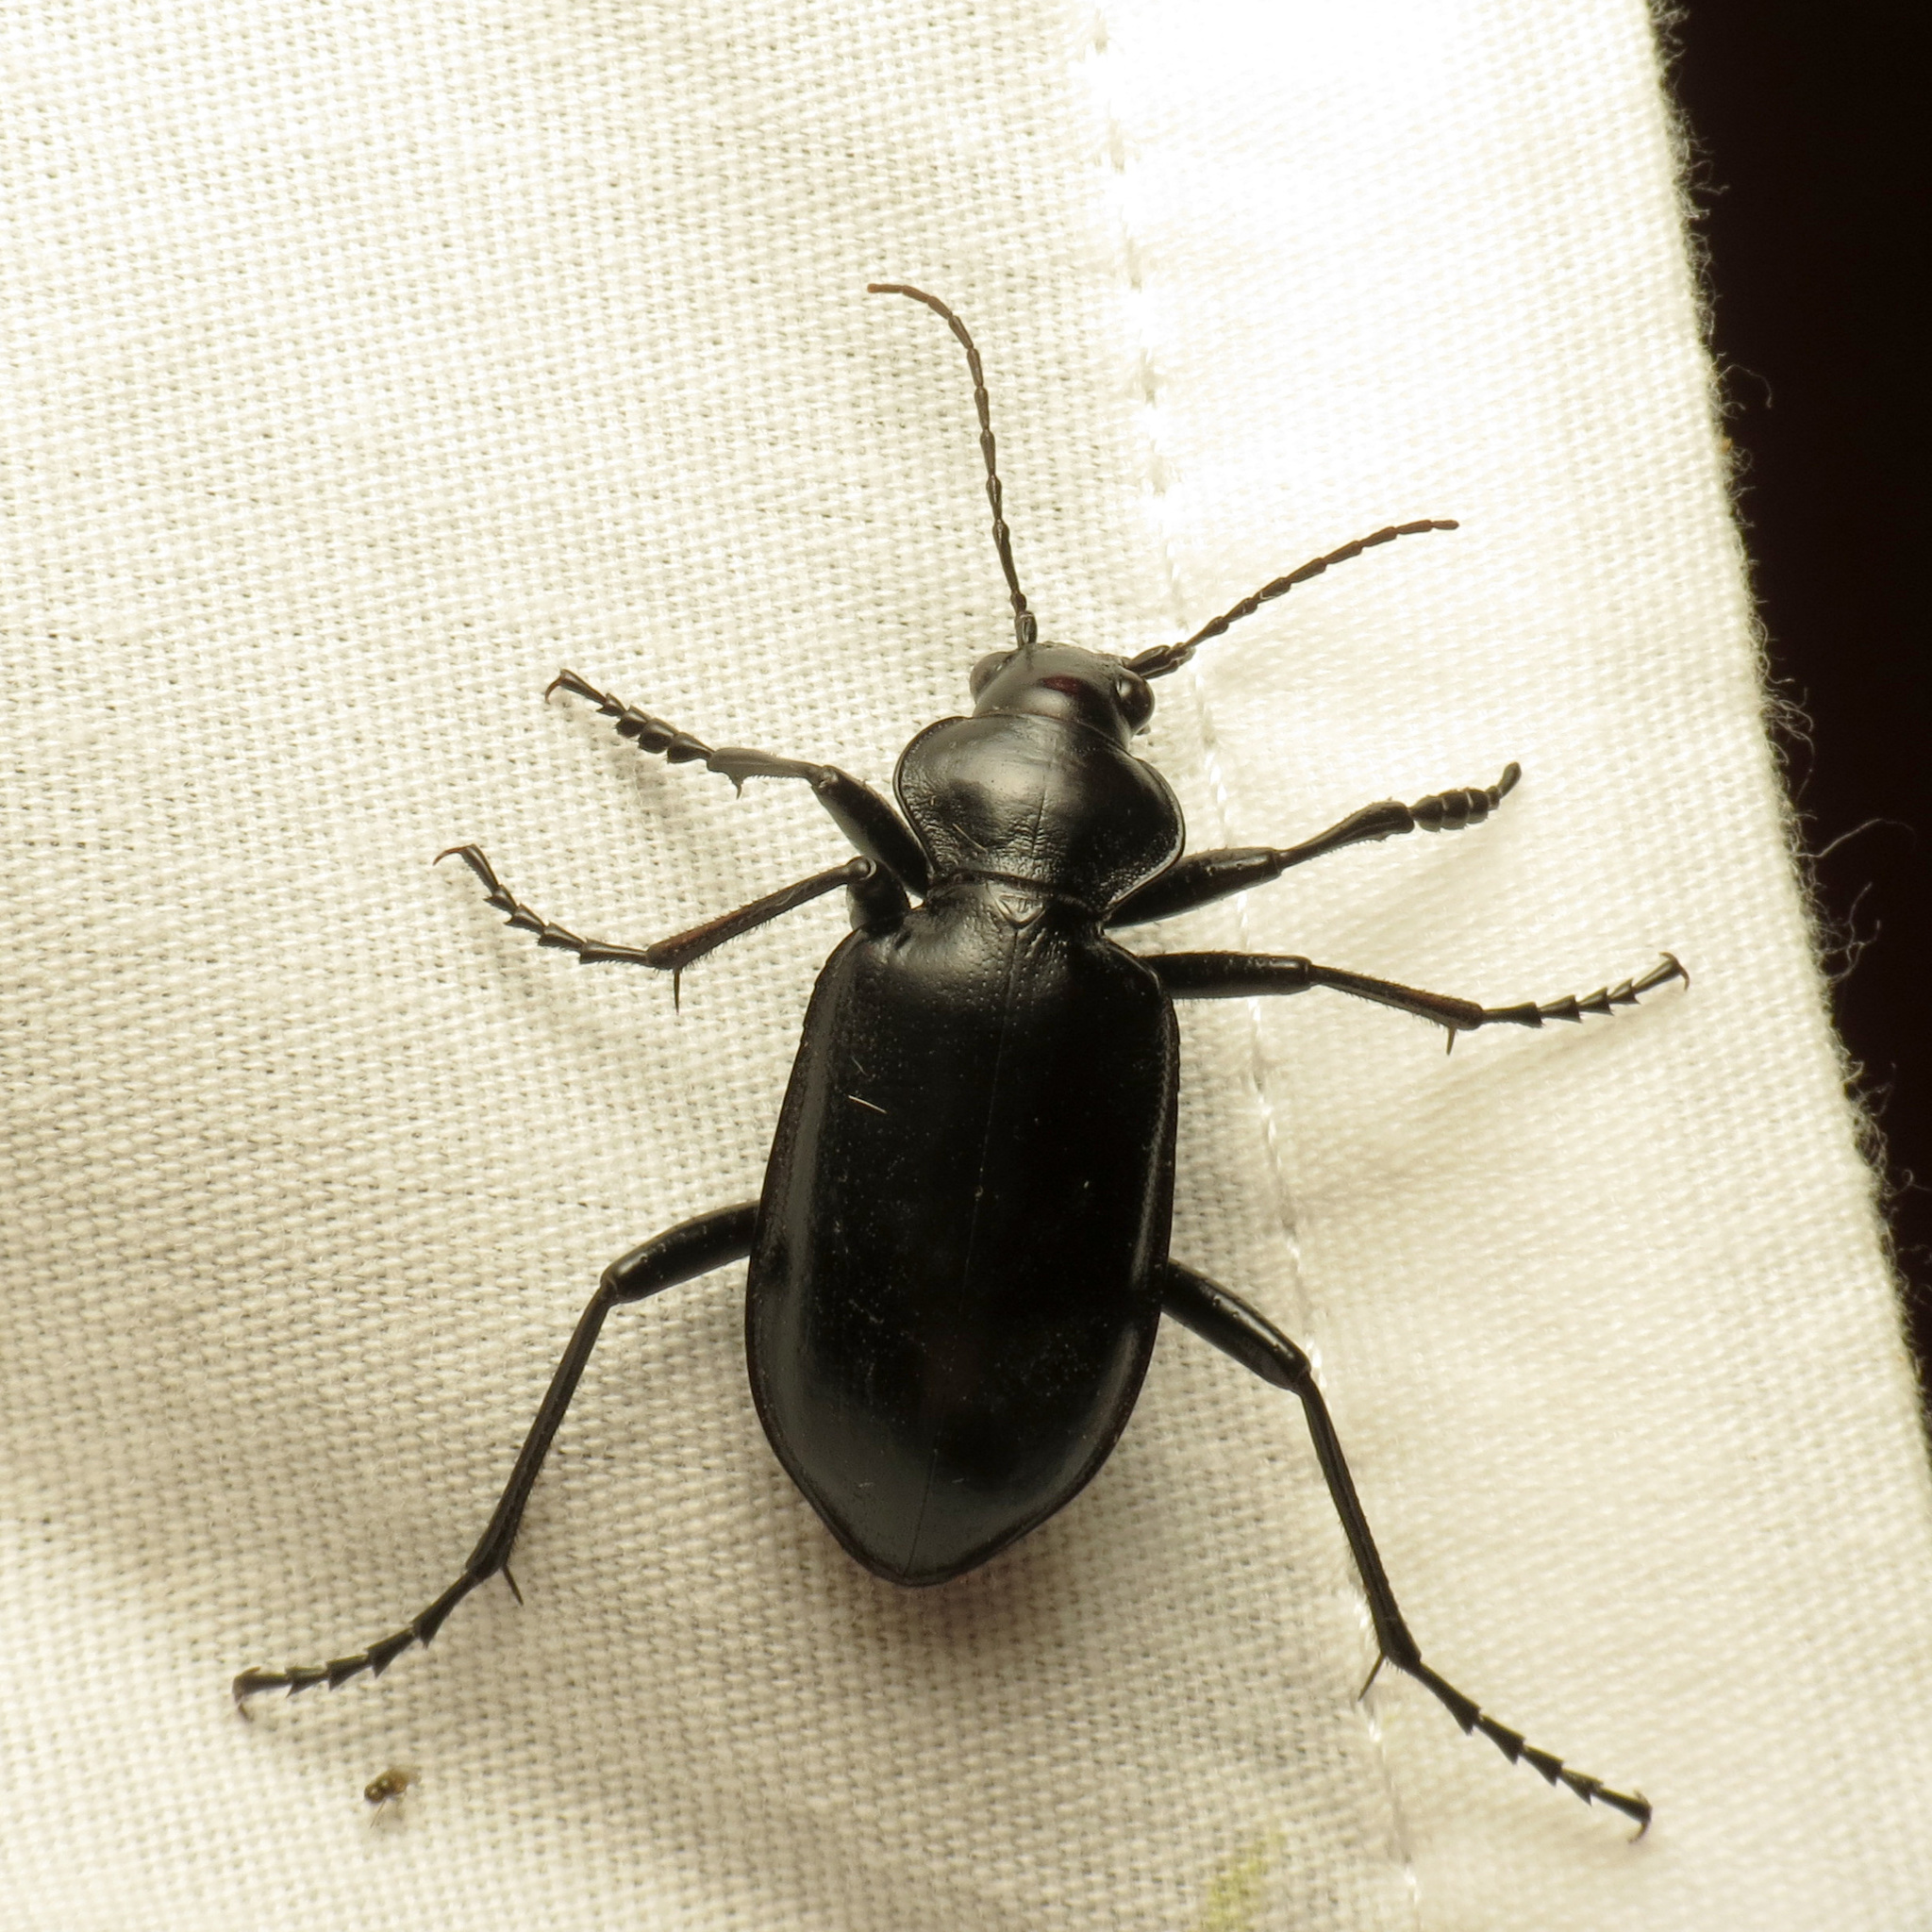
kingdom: Animalia
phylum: Arthropoda
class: Insecta
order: Coleoptera
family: Carabidae
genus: Calosoma
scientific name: Calosoma peregrinator
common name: Ground beetle
